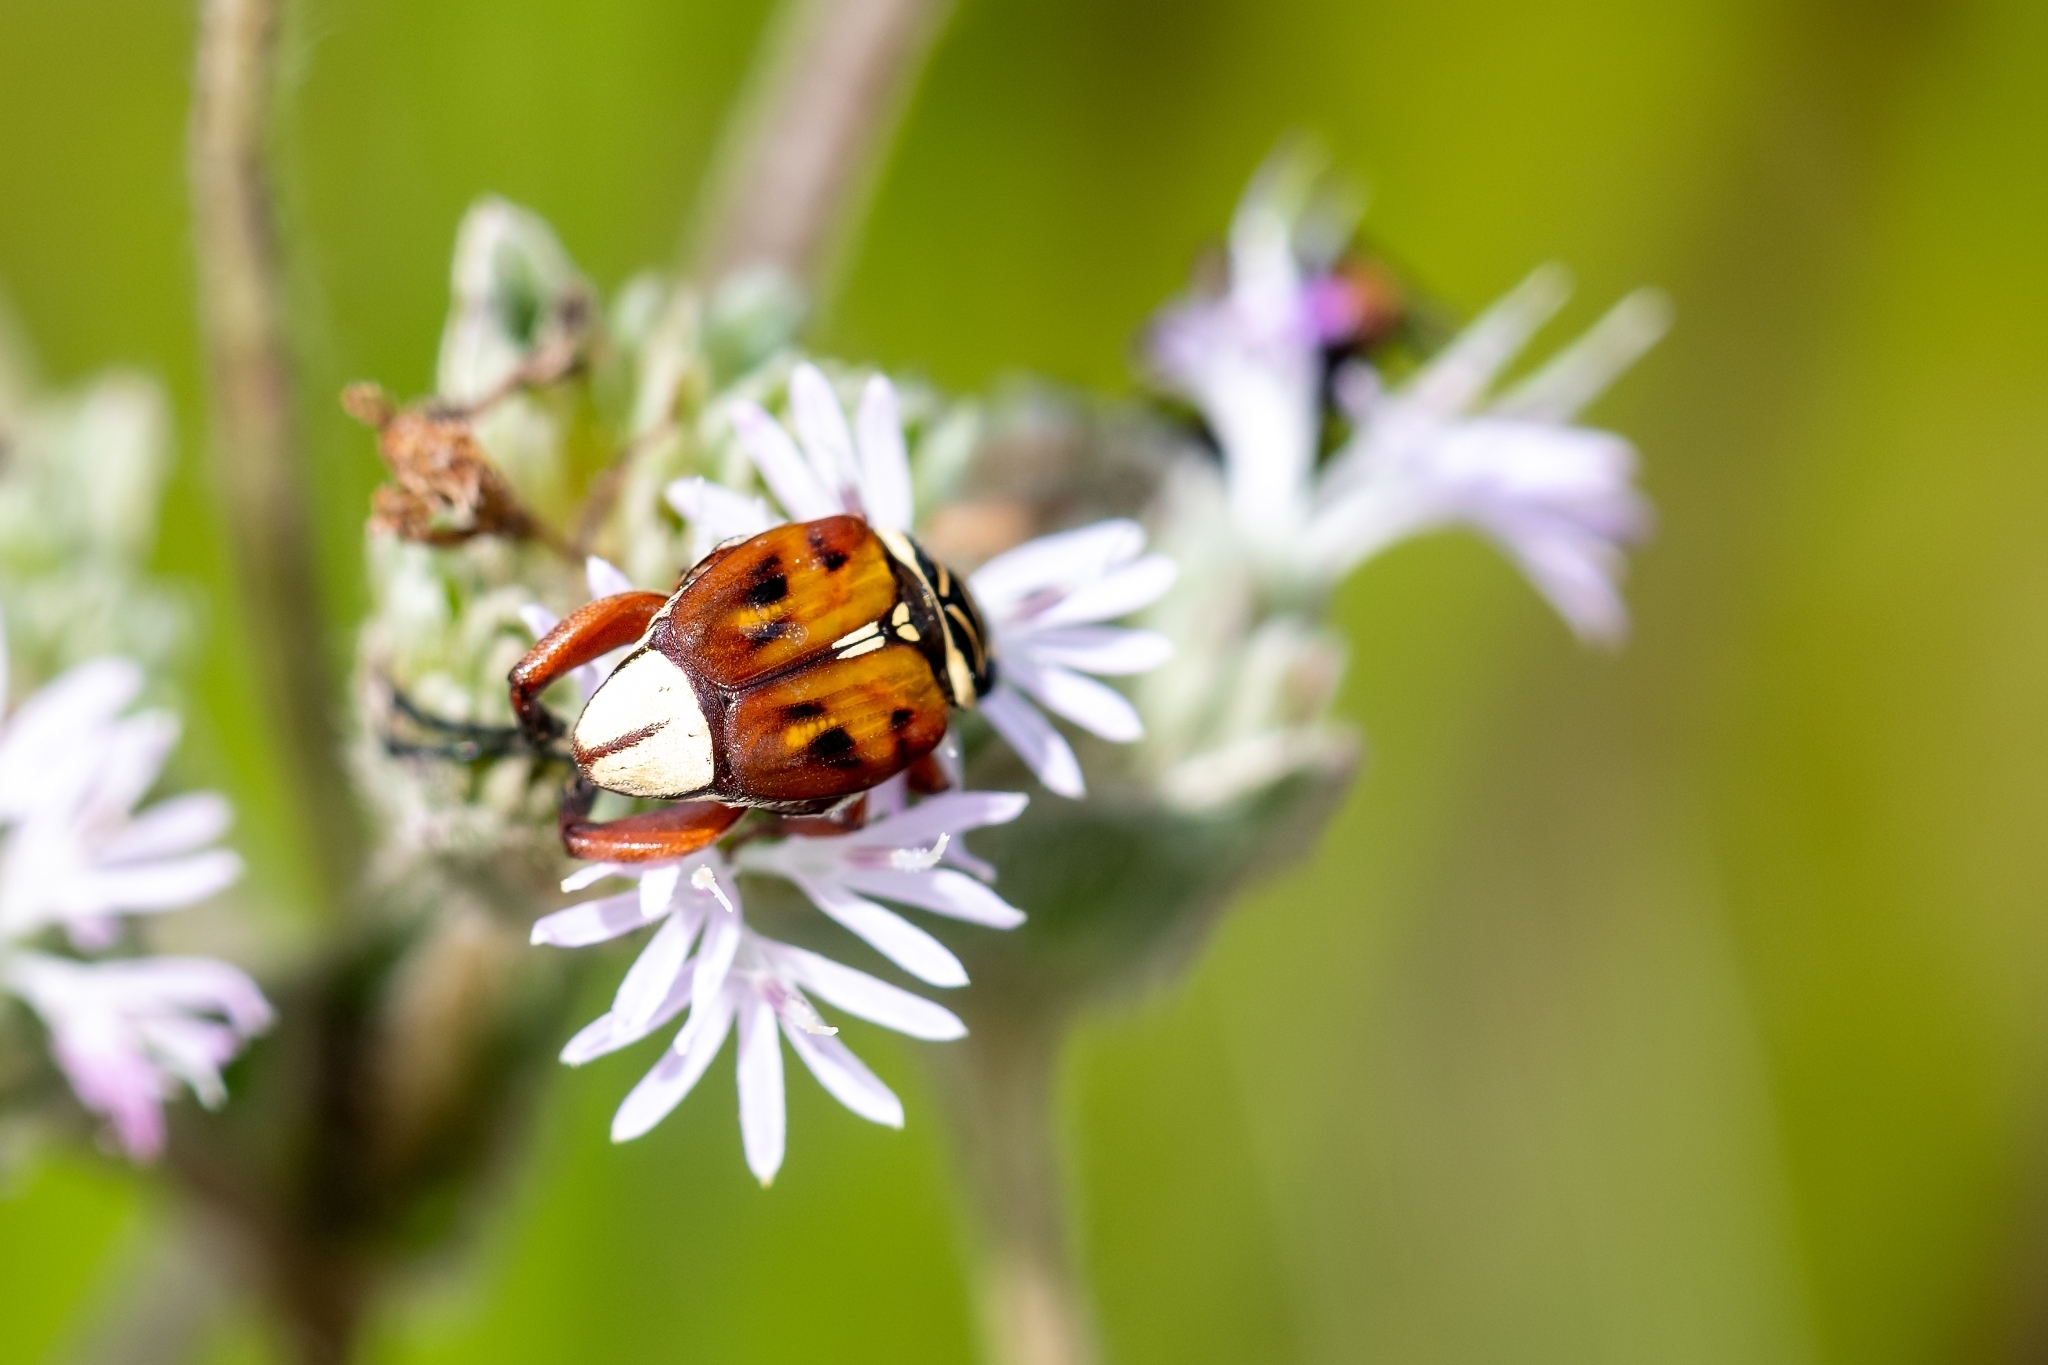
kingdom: Animalia
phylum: Arthropoda
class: Insecta
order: Coleoptera
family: Scarabaeidae
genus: Trigonopeltastes
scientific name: Trigonopeltastes delta
